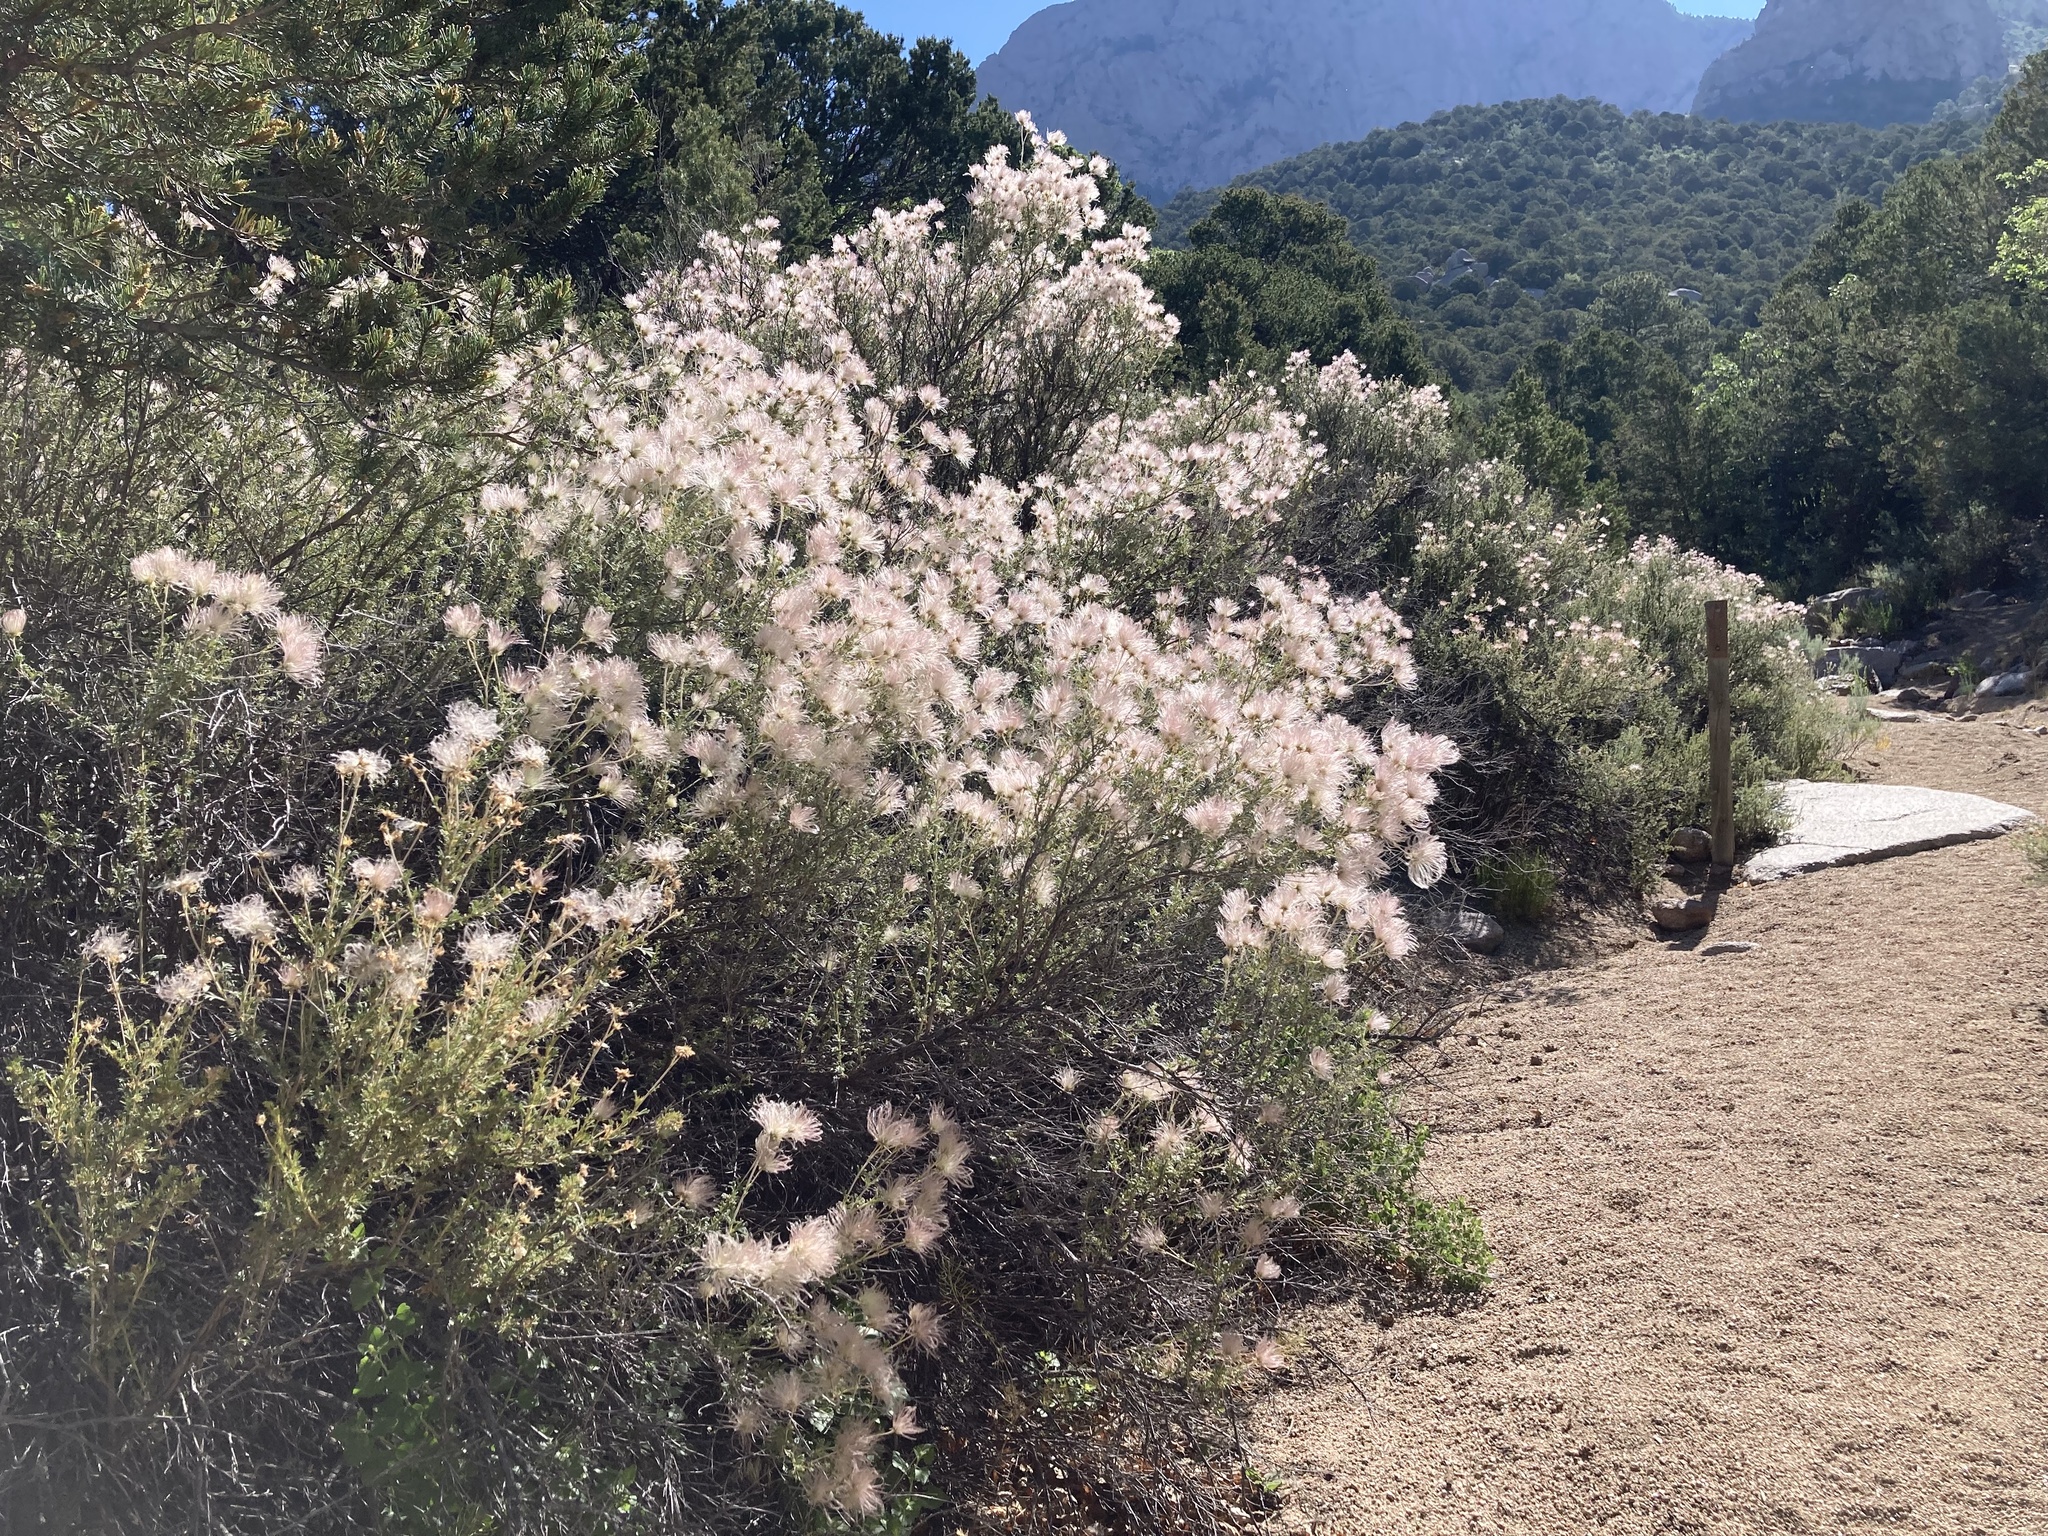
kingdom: Plantae
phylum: Tracheophyta
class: Magnoliopsida
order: Rosales
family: Rosaceae
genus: Fallugia
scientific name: Fallugia paradoxa
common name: Apache-plume
